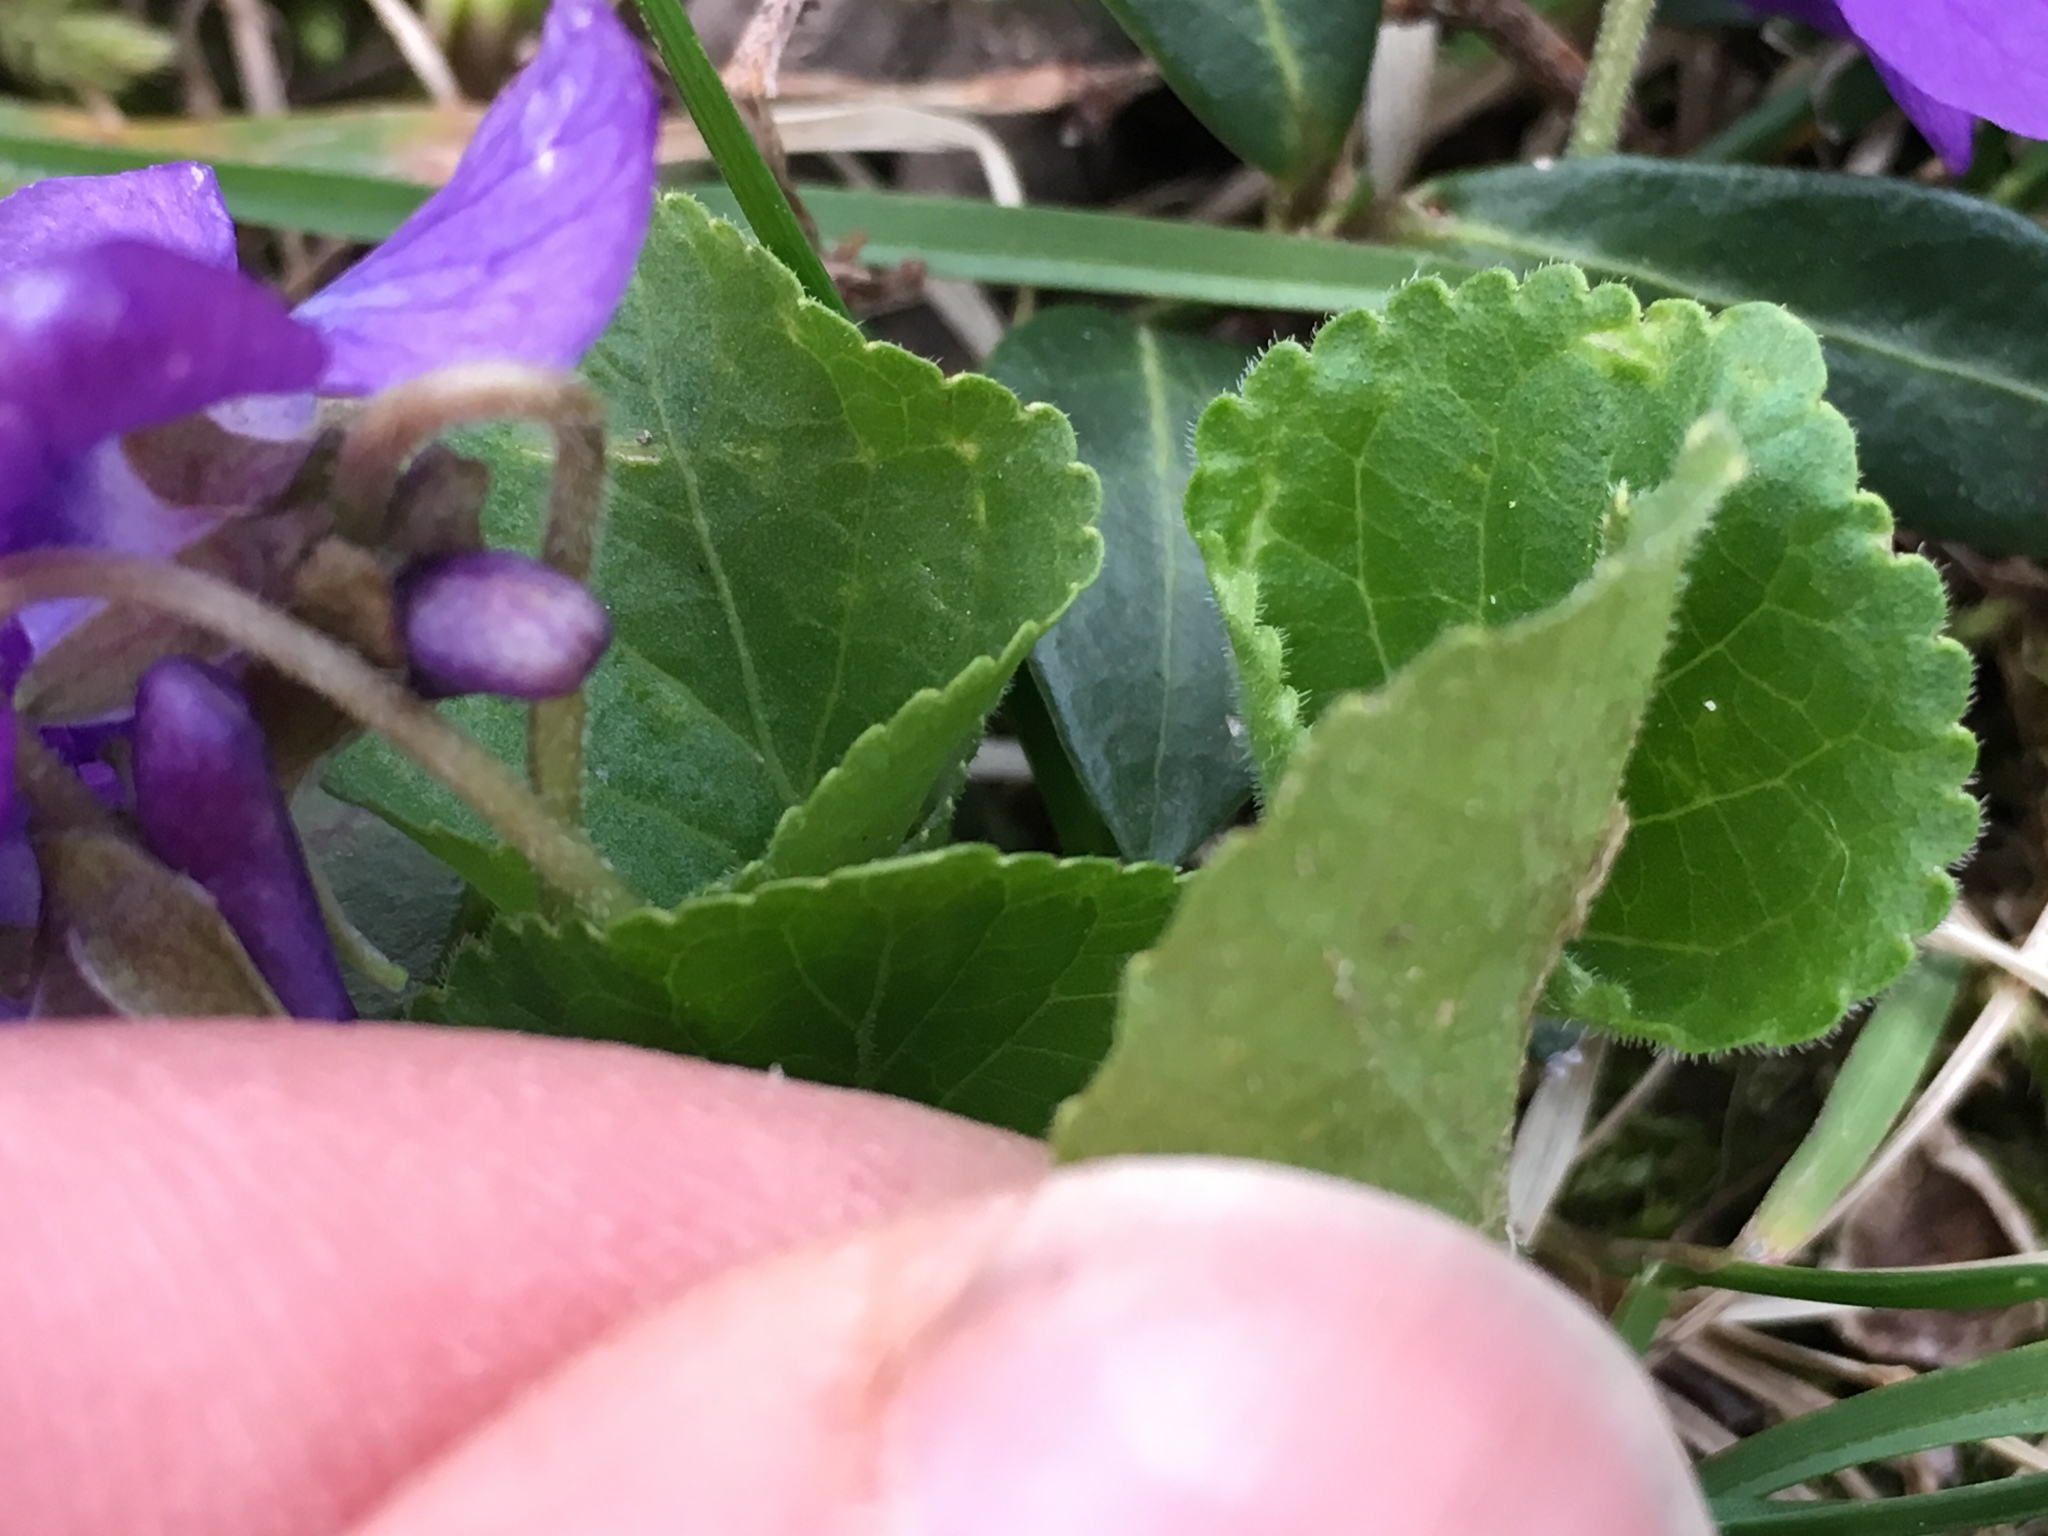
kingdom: Plantae
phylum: Tracheophyta
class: Magnoliopsida
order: Malpighiales
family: Violaceae
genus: Viola
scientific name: Viola odorata
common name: Sweet violet
